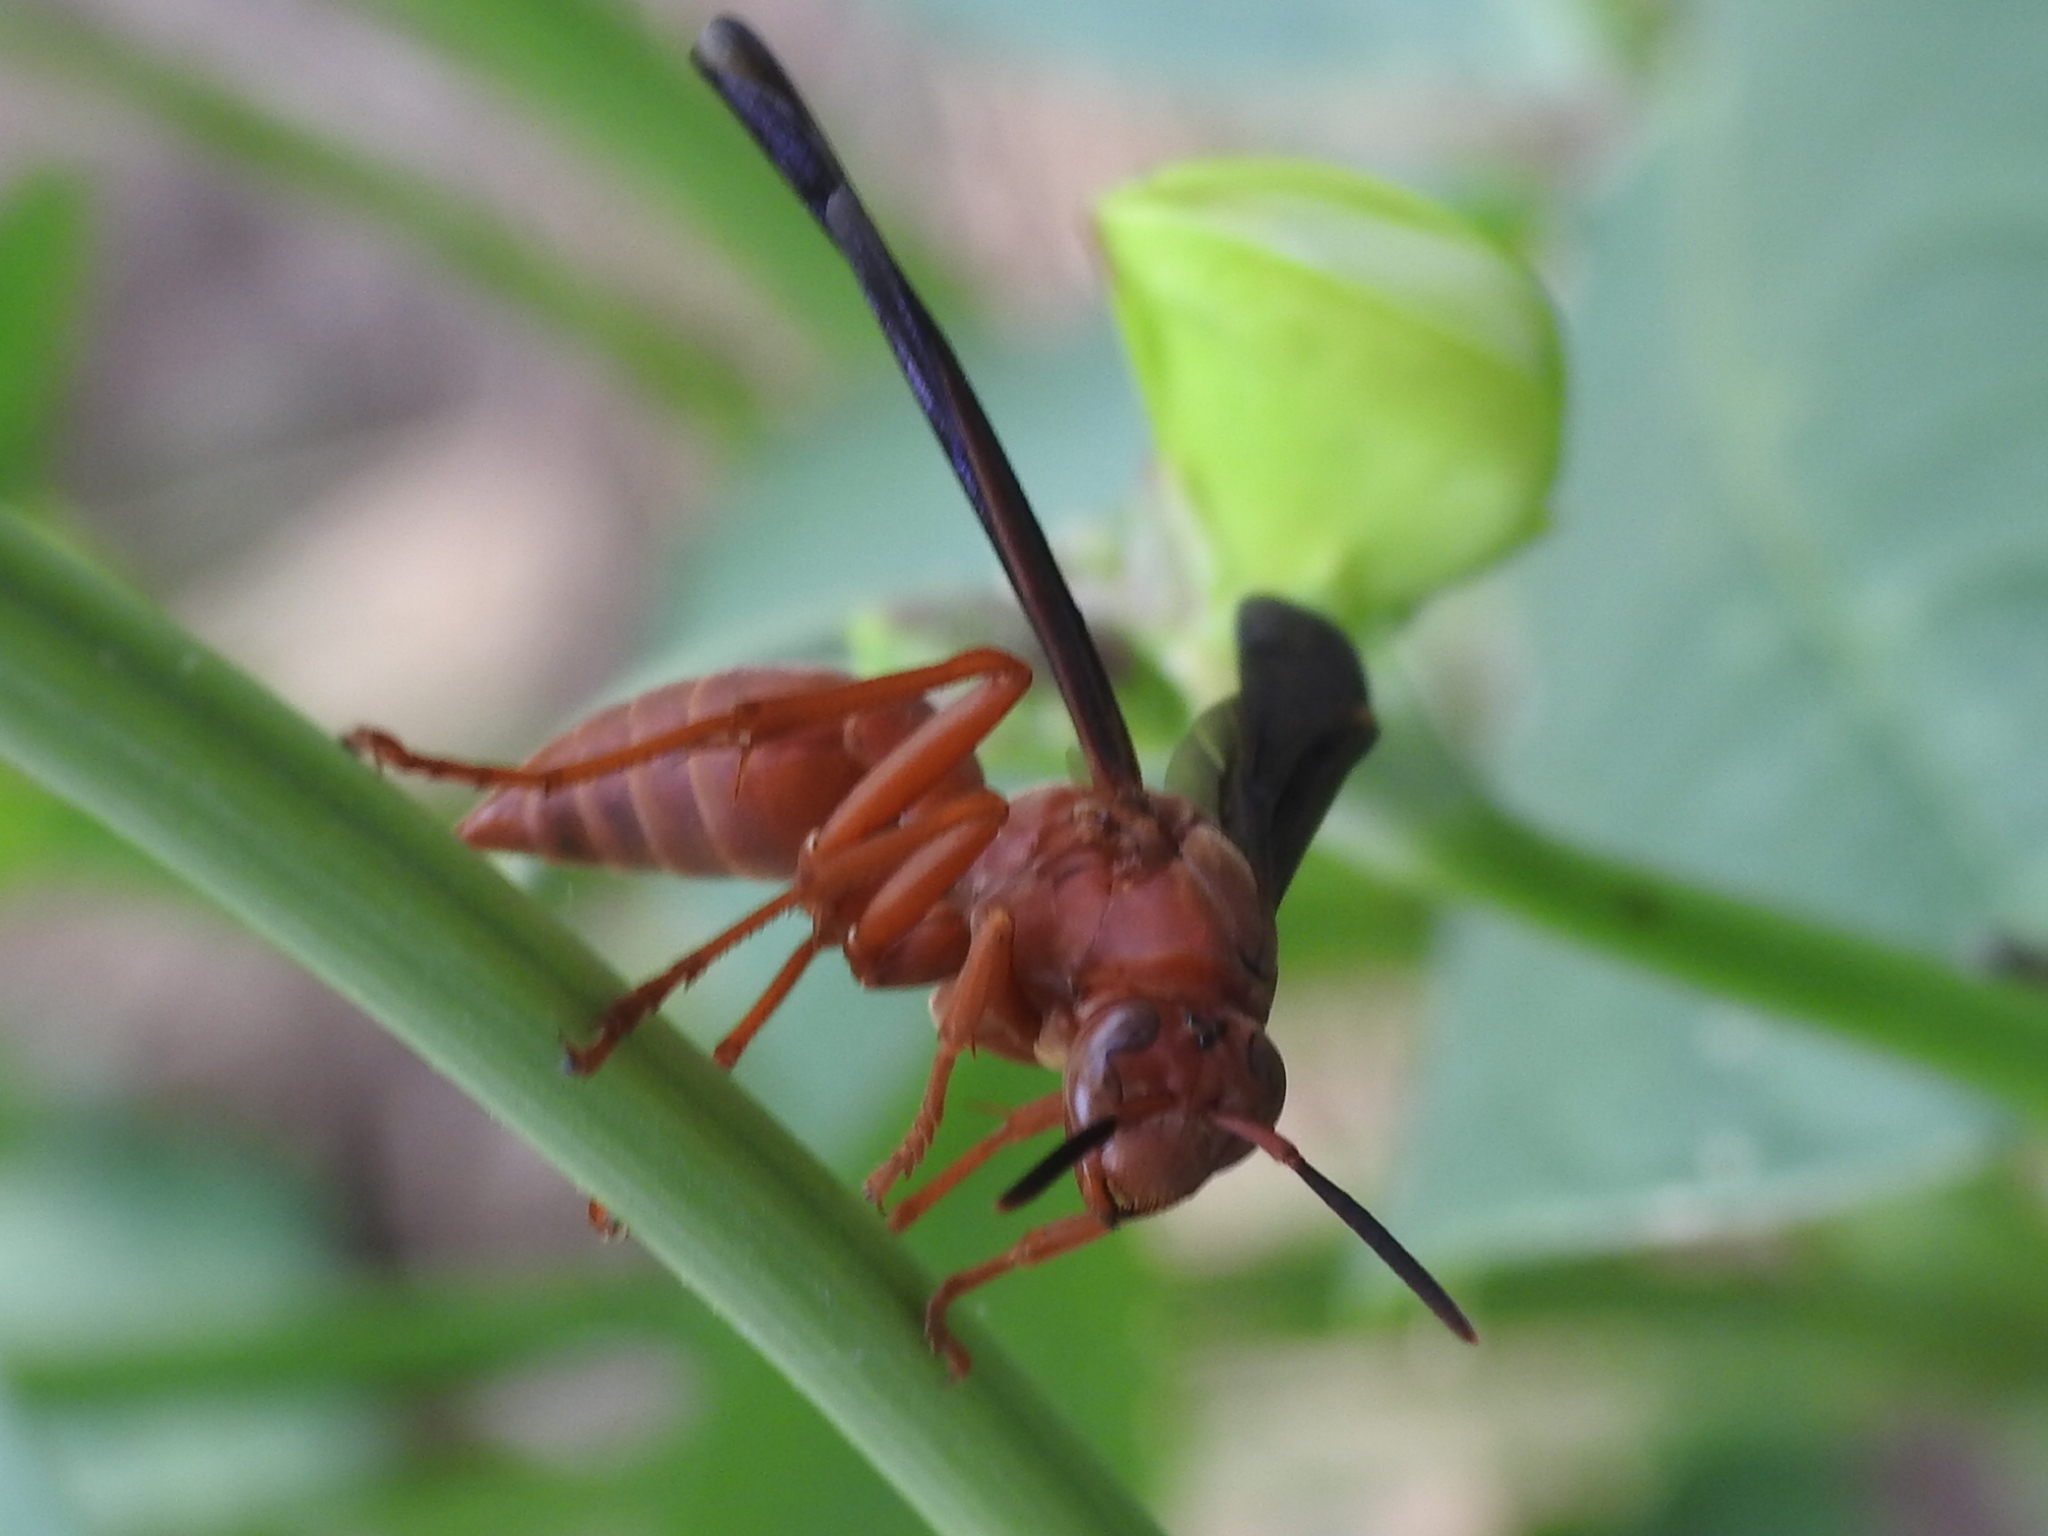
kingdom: Animalia
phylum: Arthropoda
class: Insecta
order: Hymenoptera
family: Eumenidae
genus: Polistes
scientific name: Polistes carolina
